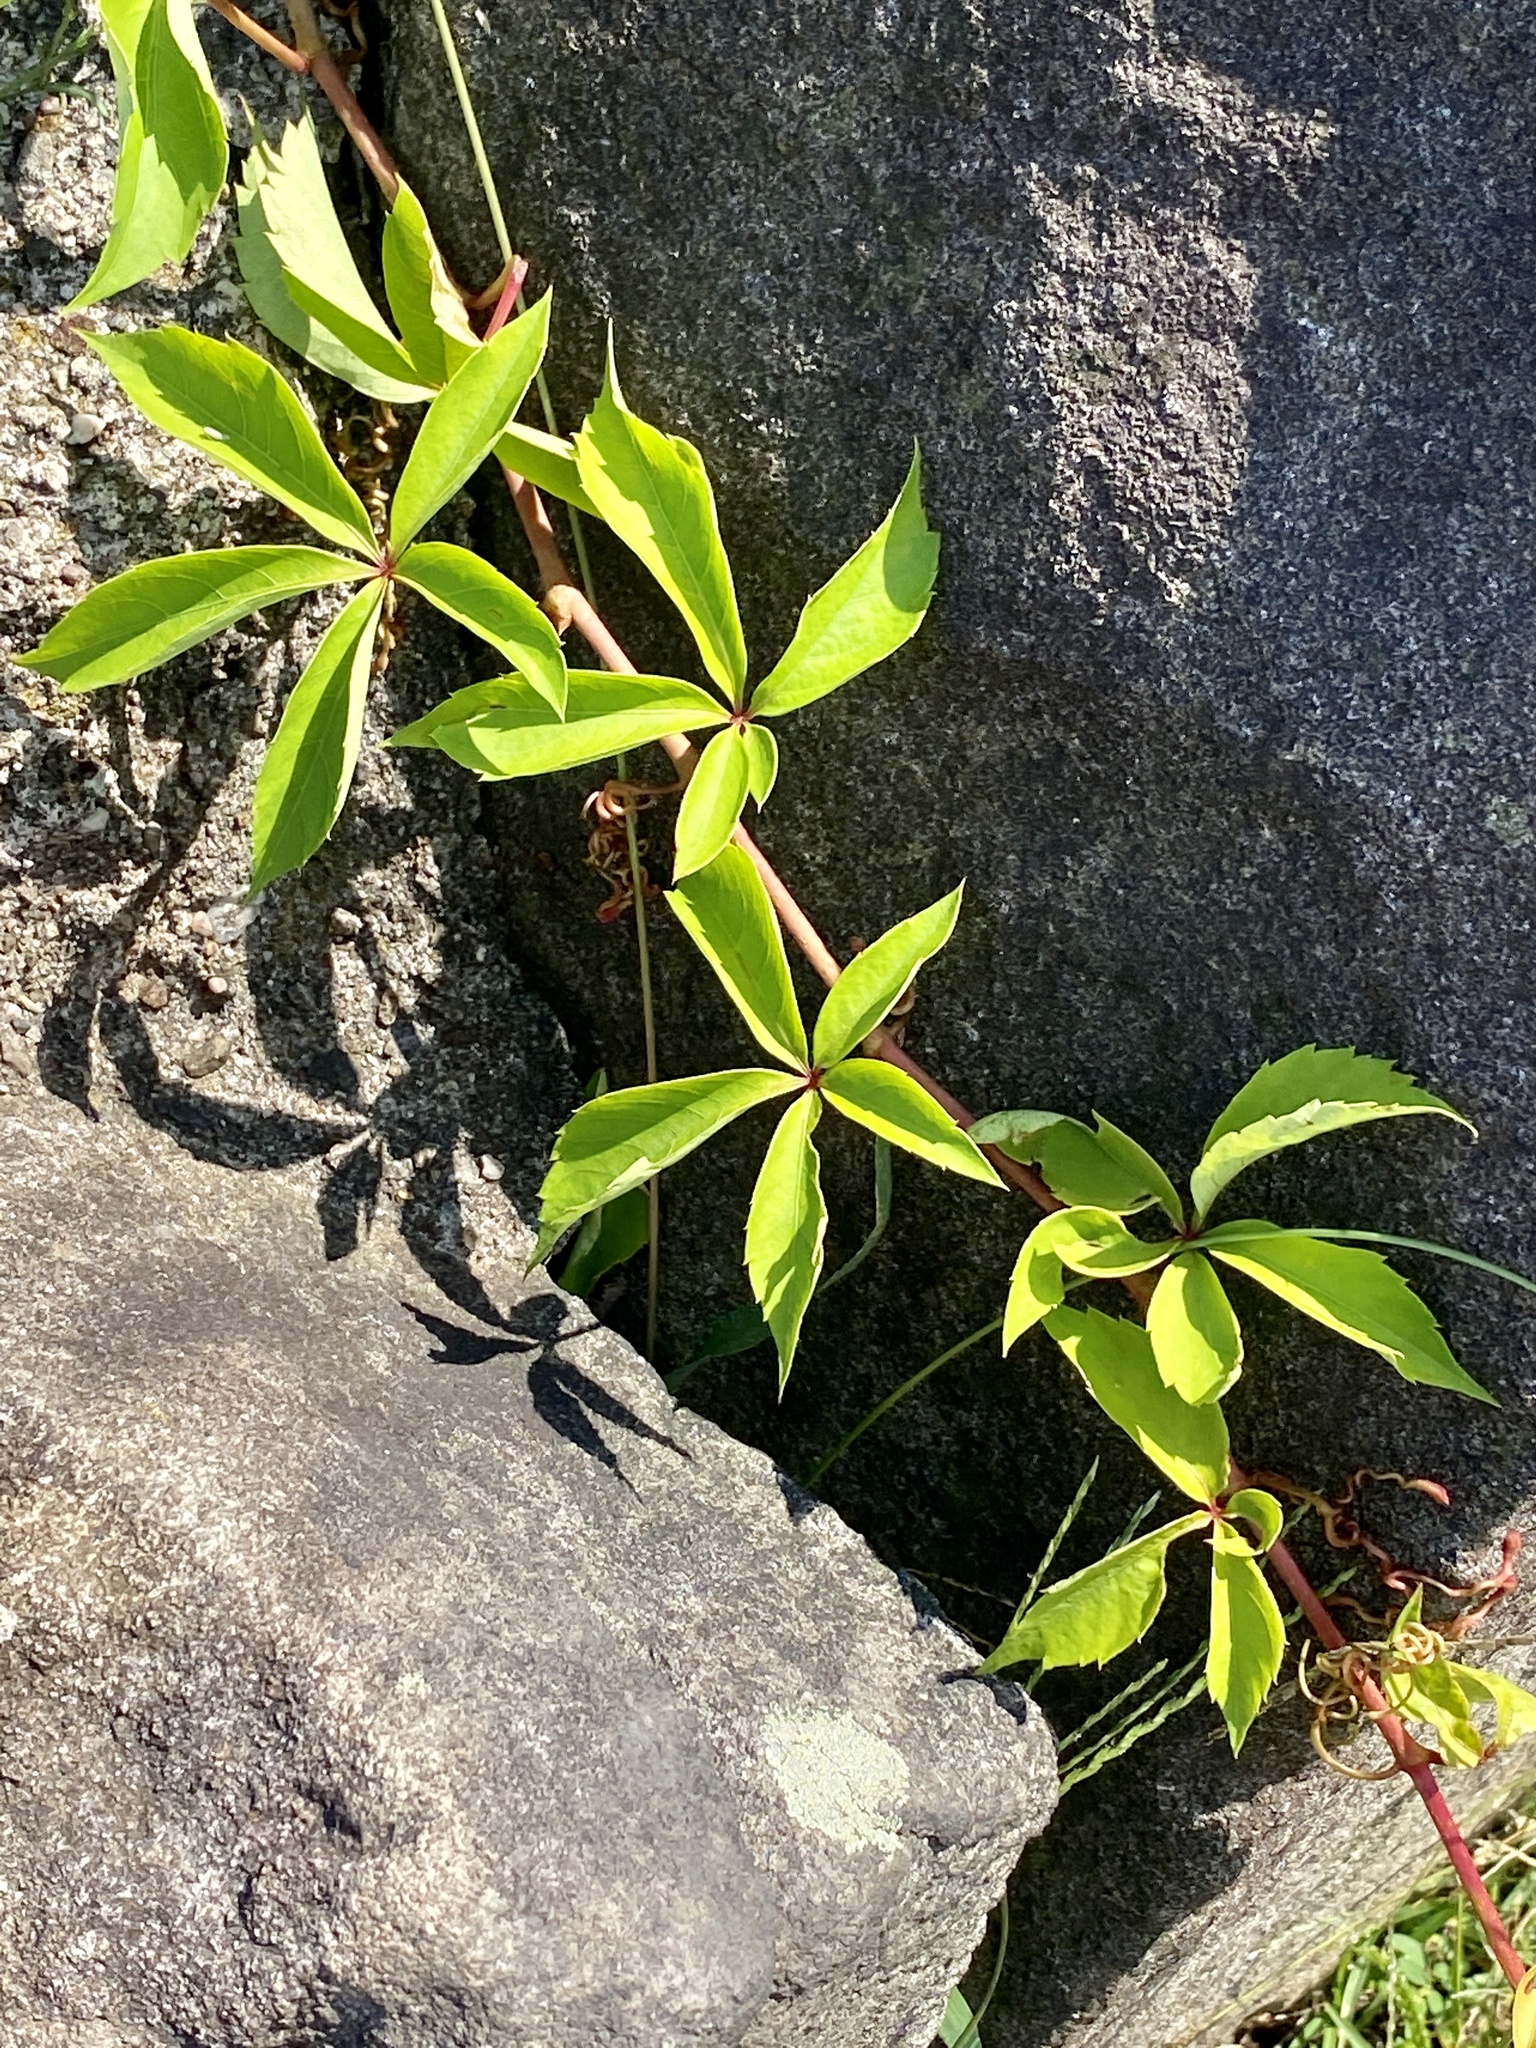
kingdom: Plantae
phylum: Tracheophyta
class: Magnoliopsida
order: Vitales
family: Vitaceae
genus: Parthenocissus
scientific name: Parthenocissus quinquefolia
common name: Virginia-creeper
